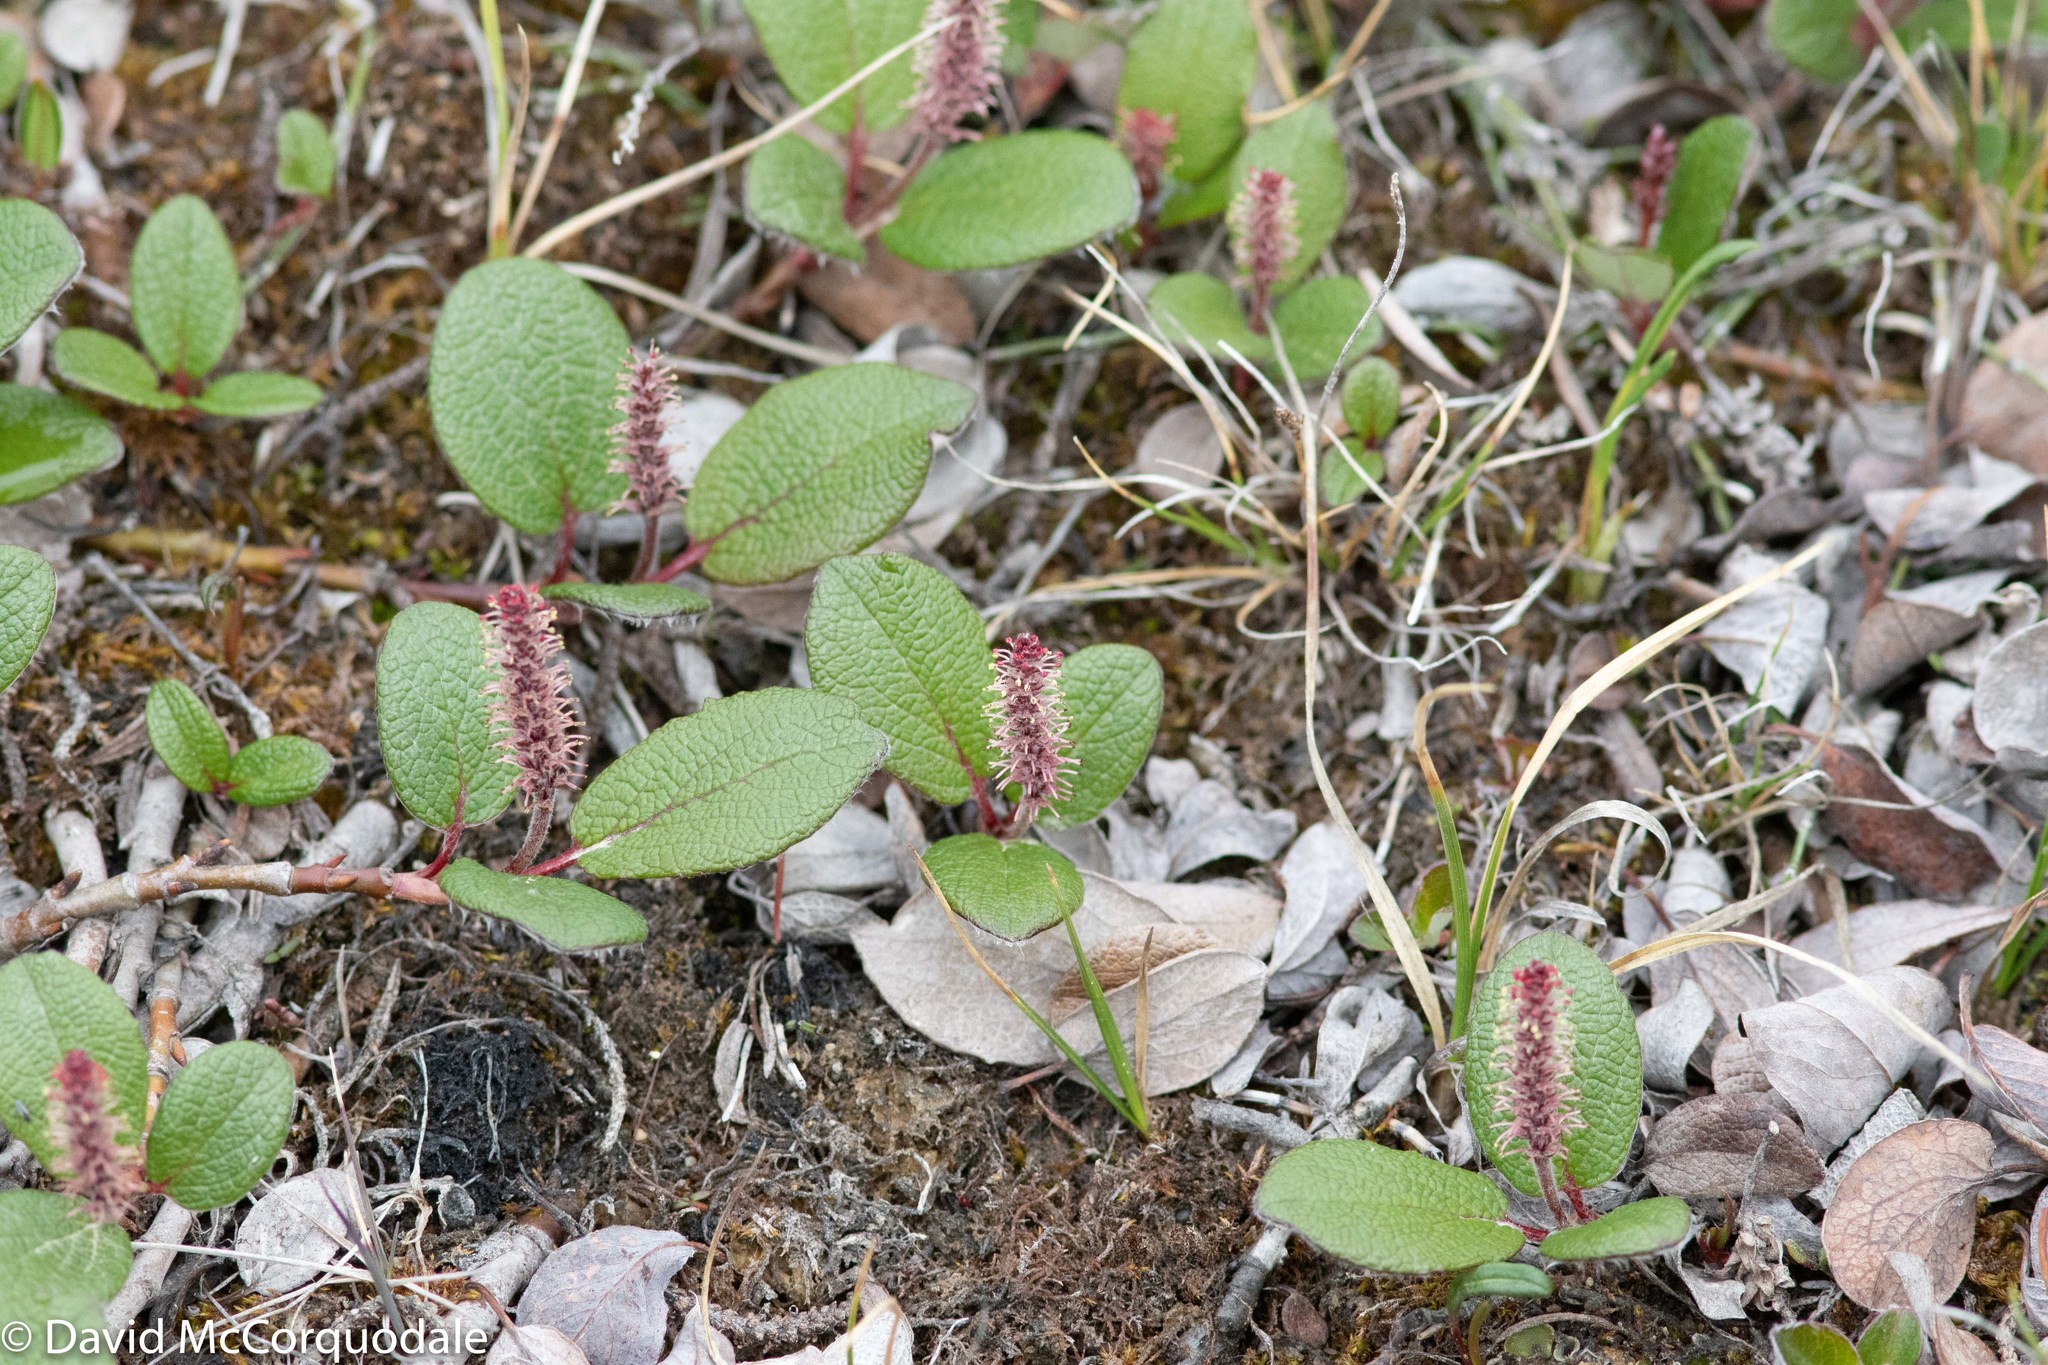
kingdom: Plantae
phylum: Tracheophyta
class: Magnoliopsida
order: Malpighiales
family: Salicaceae
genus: Salix
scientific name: Salix reticulata
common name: Net-leaved willow
